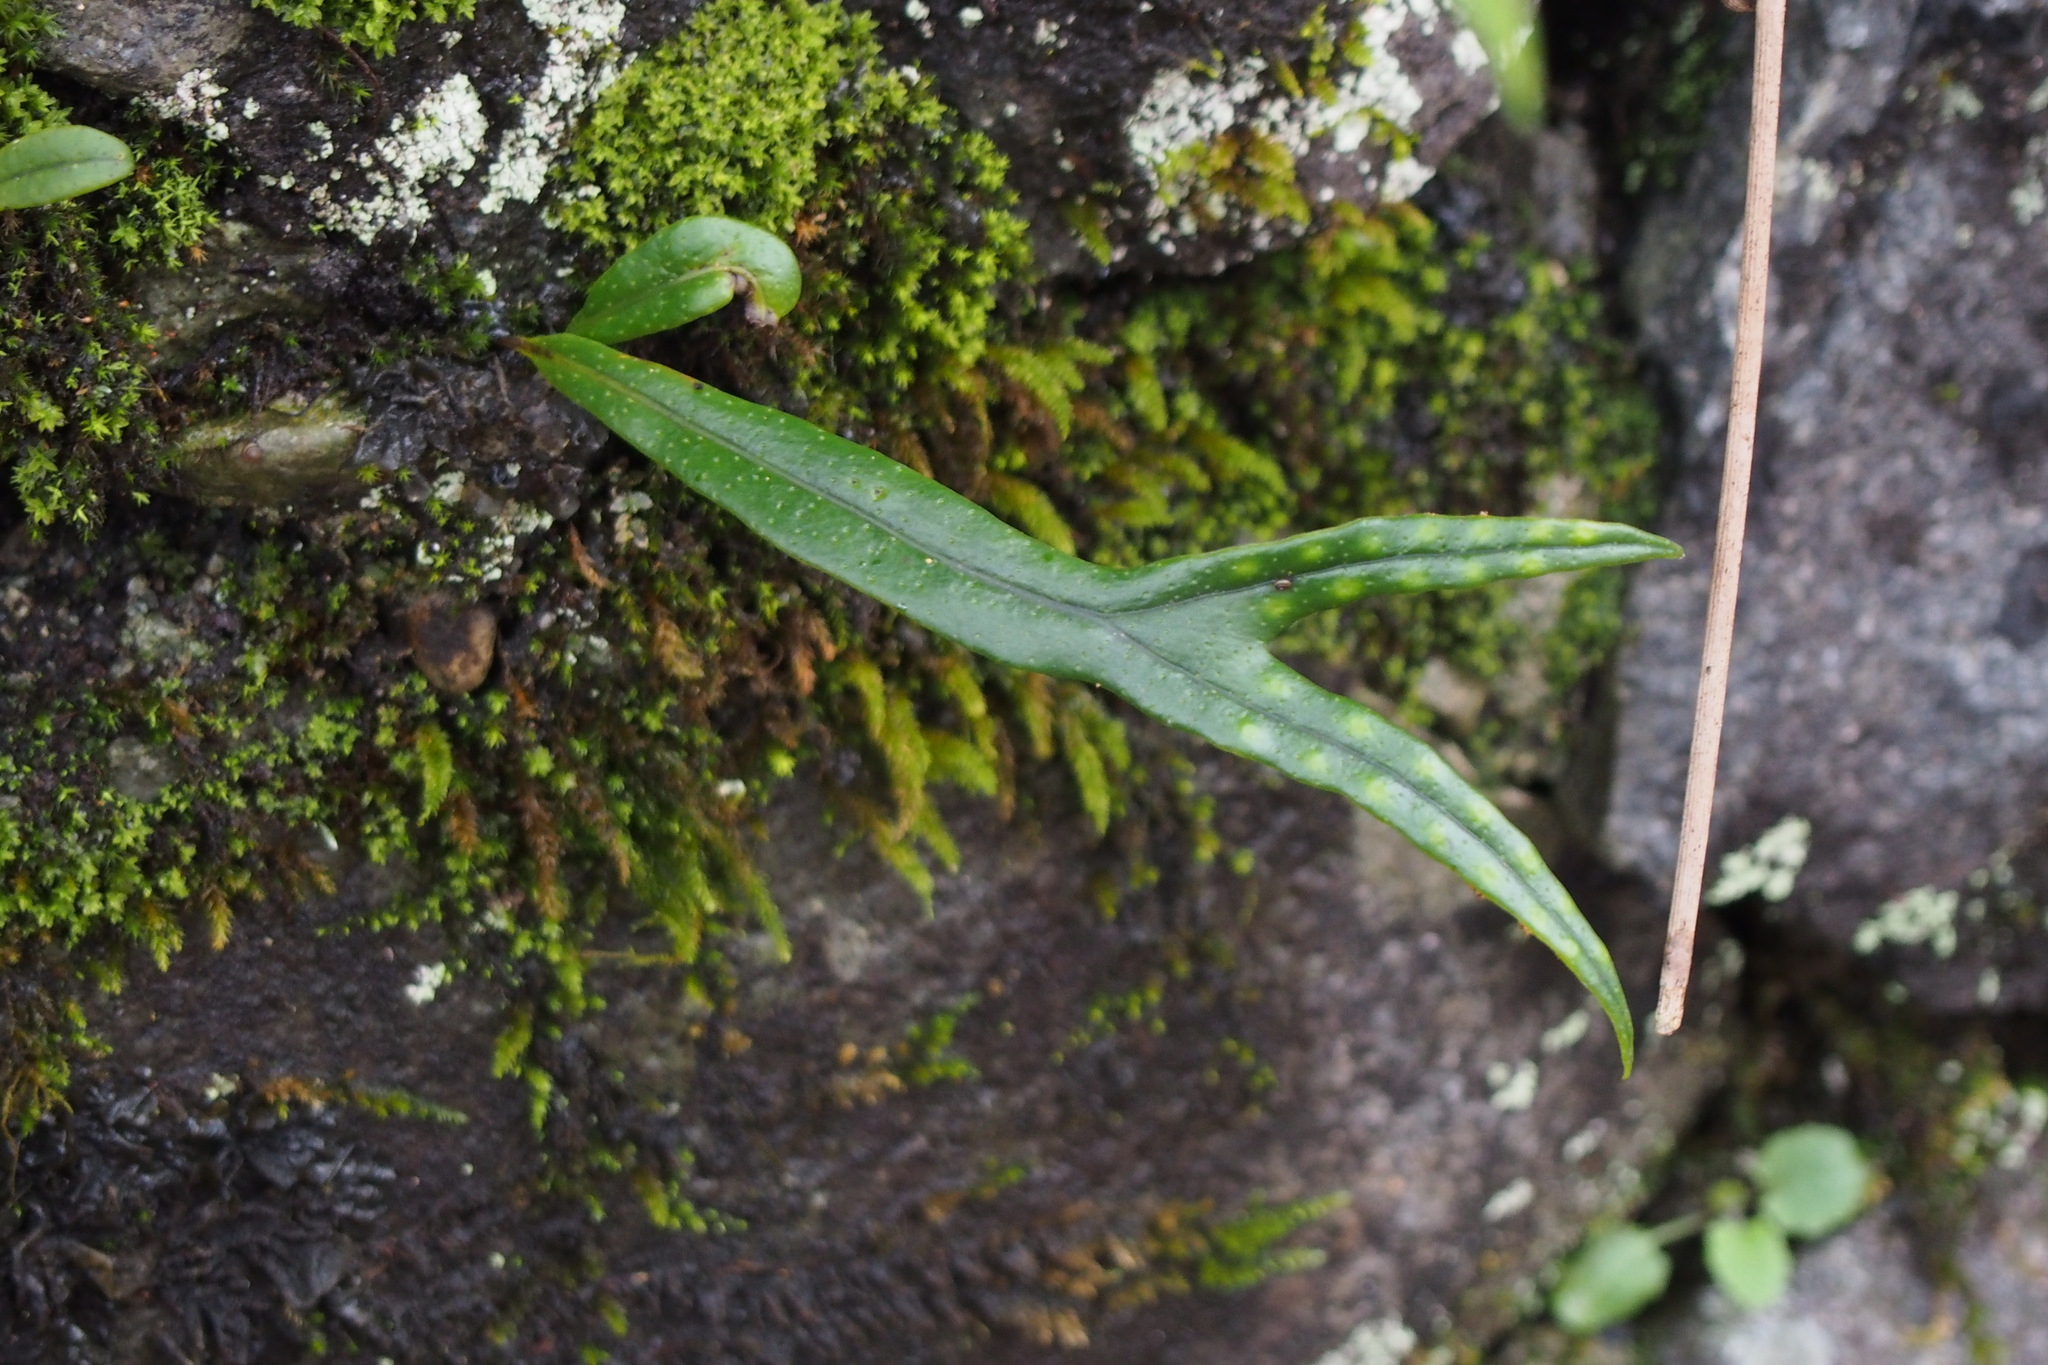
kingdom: Plantae
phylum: Tracheophyta
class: Polypodiopsida
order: Polypodiales
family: Polypodiaceae
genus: Lepisorus
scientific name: Lepisorus thunbergianus
